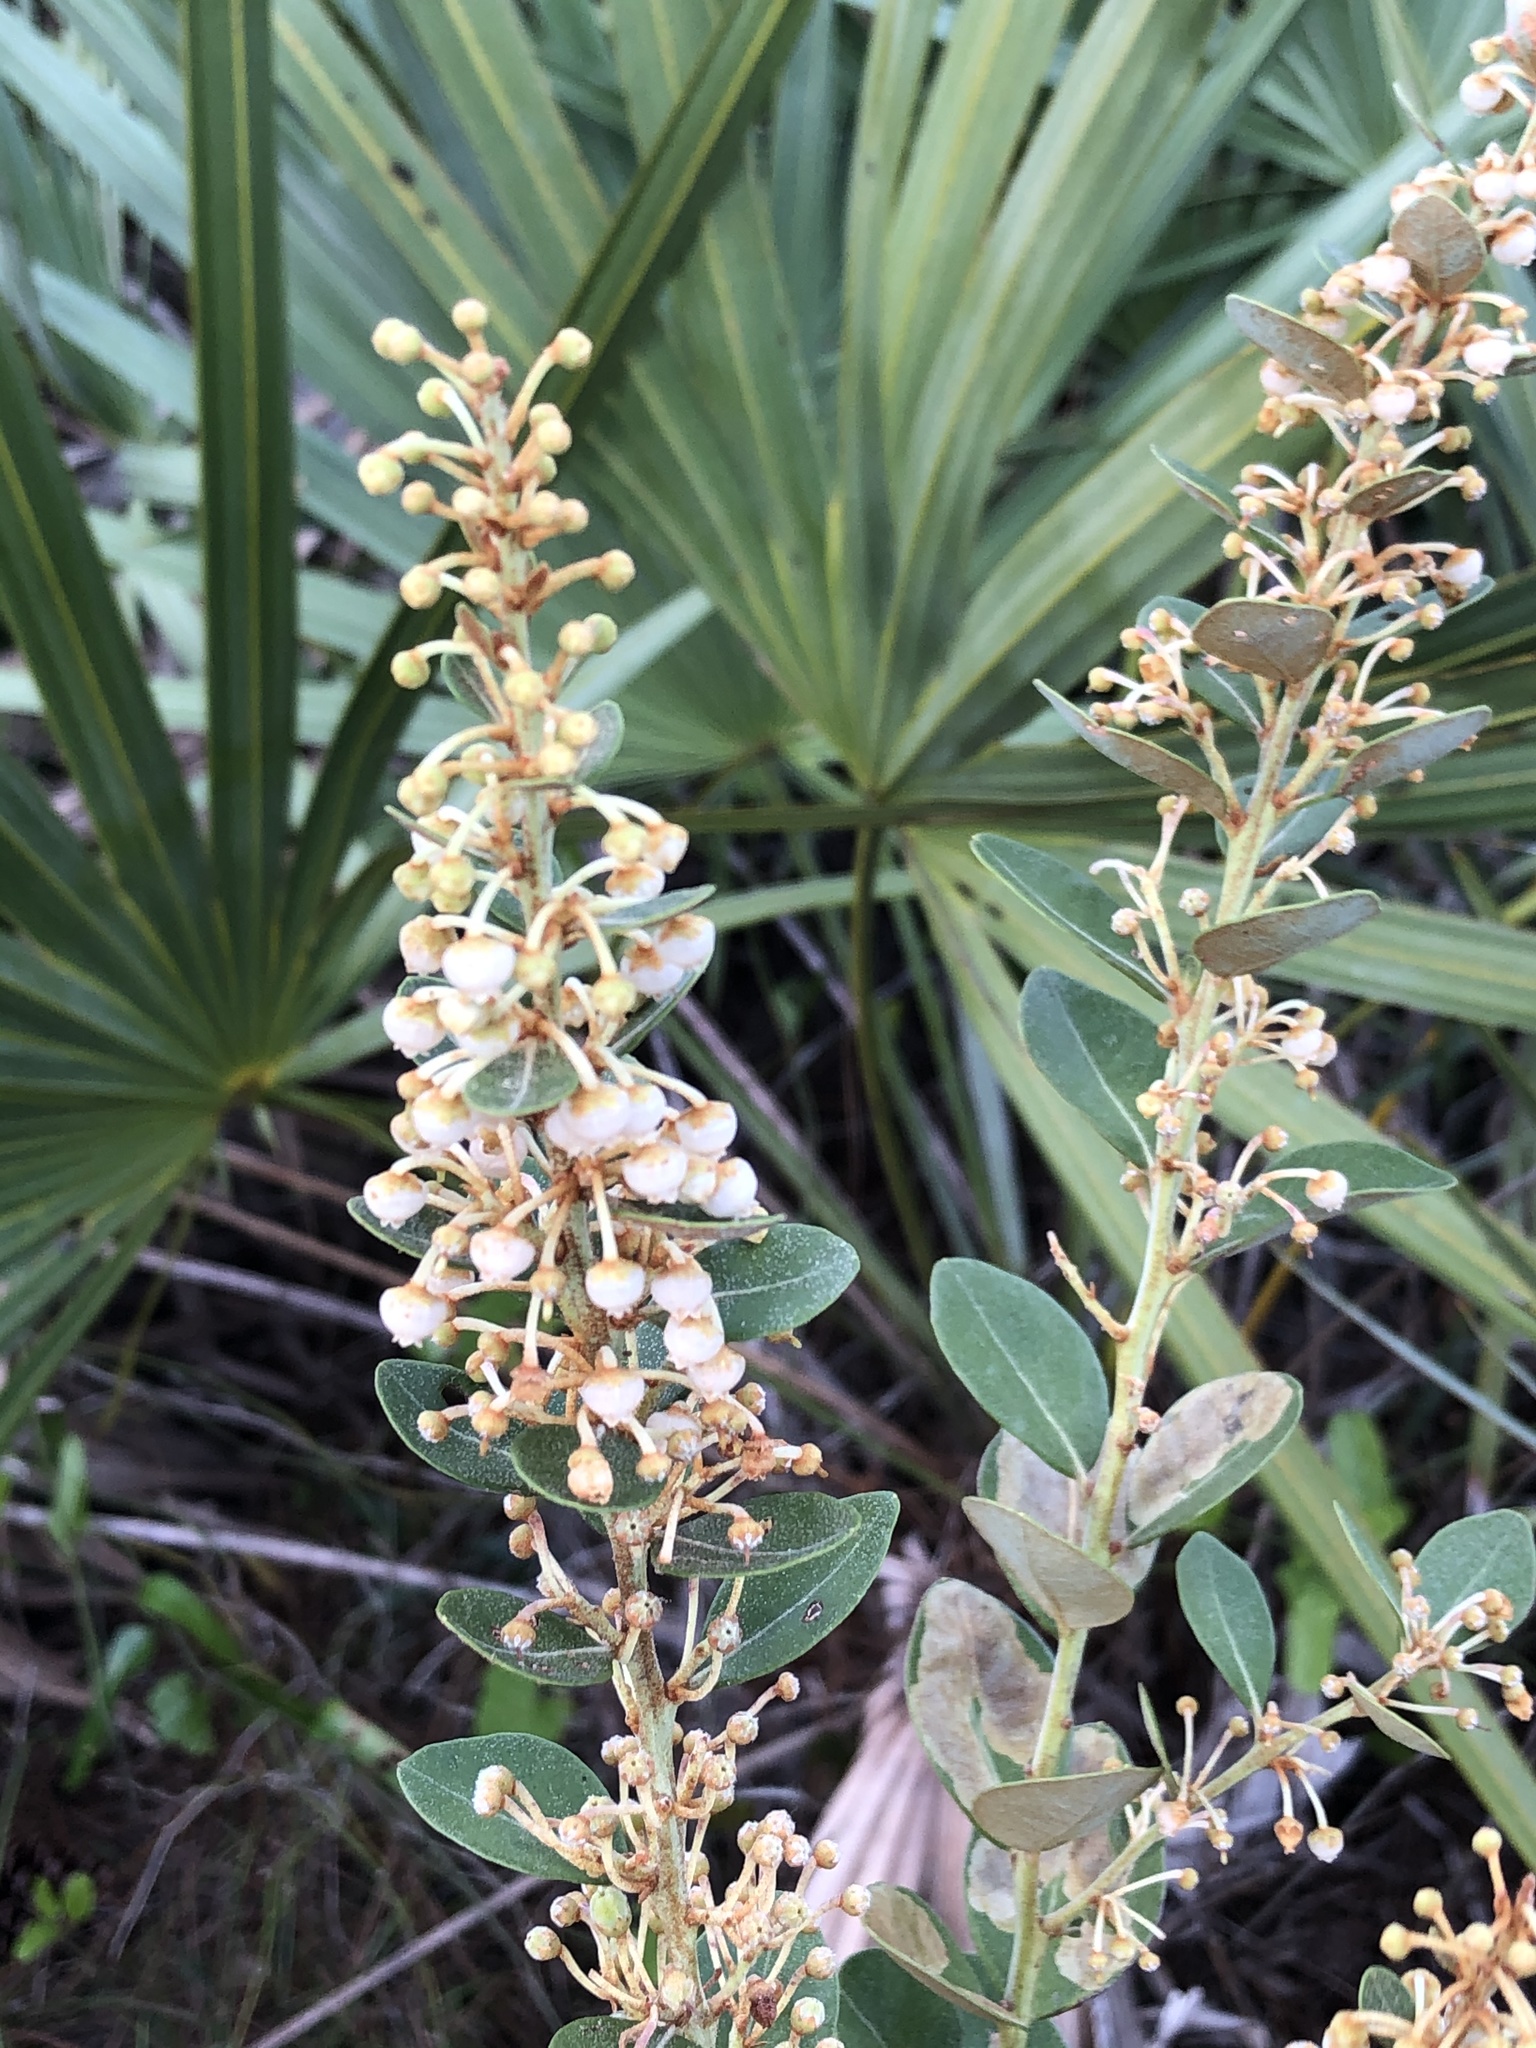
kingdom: Plantae
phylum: Tracheophyta
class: Magnoliopsida
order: Ericales
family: Ericaceae
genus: Lyonia
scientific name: Lyonia fruticosa
